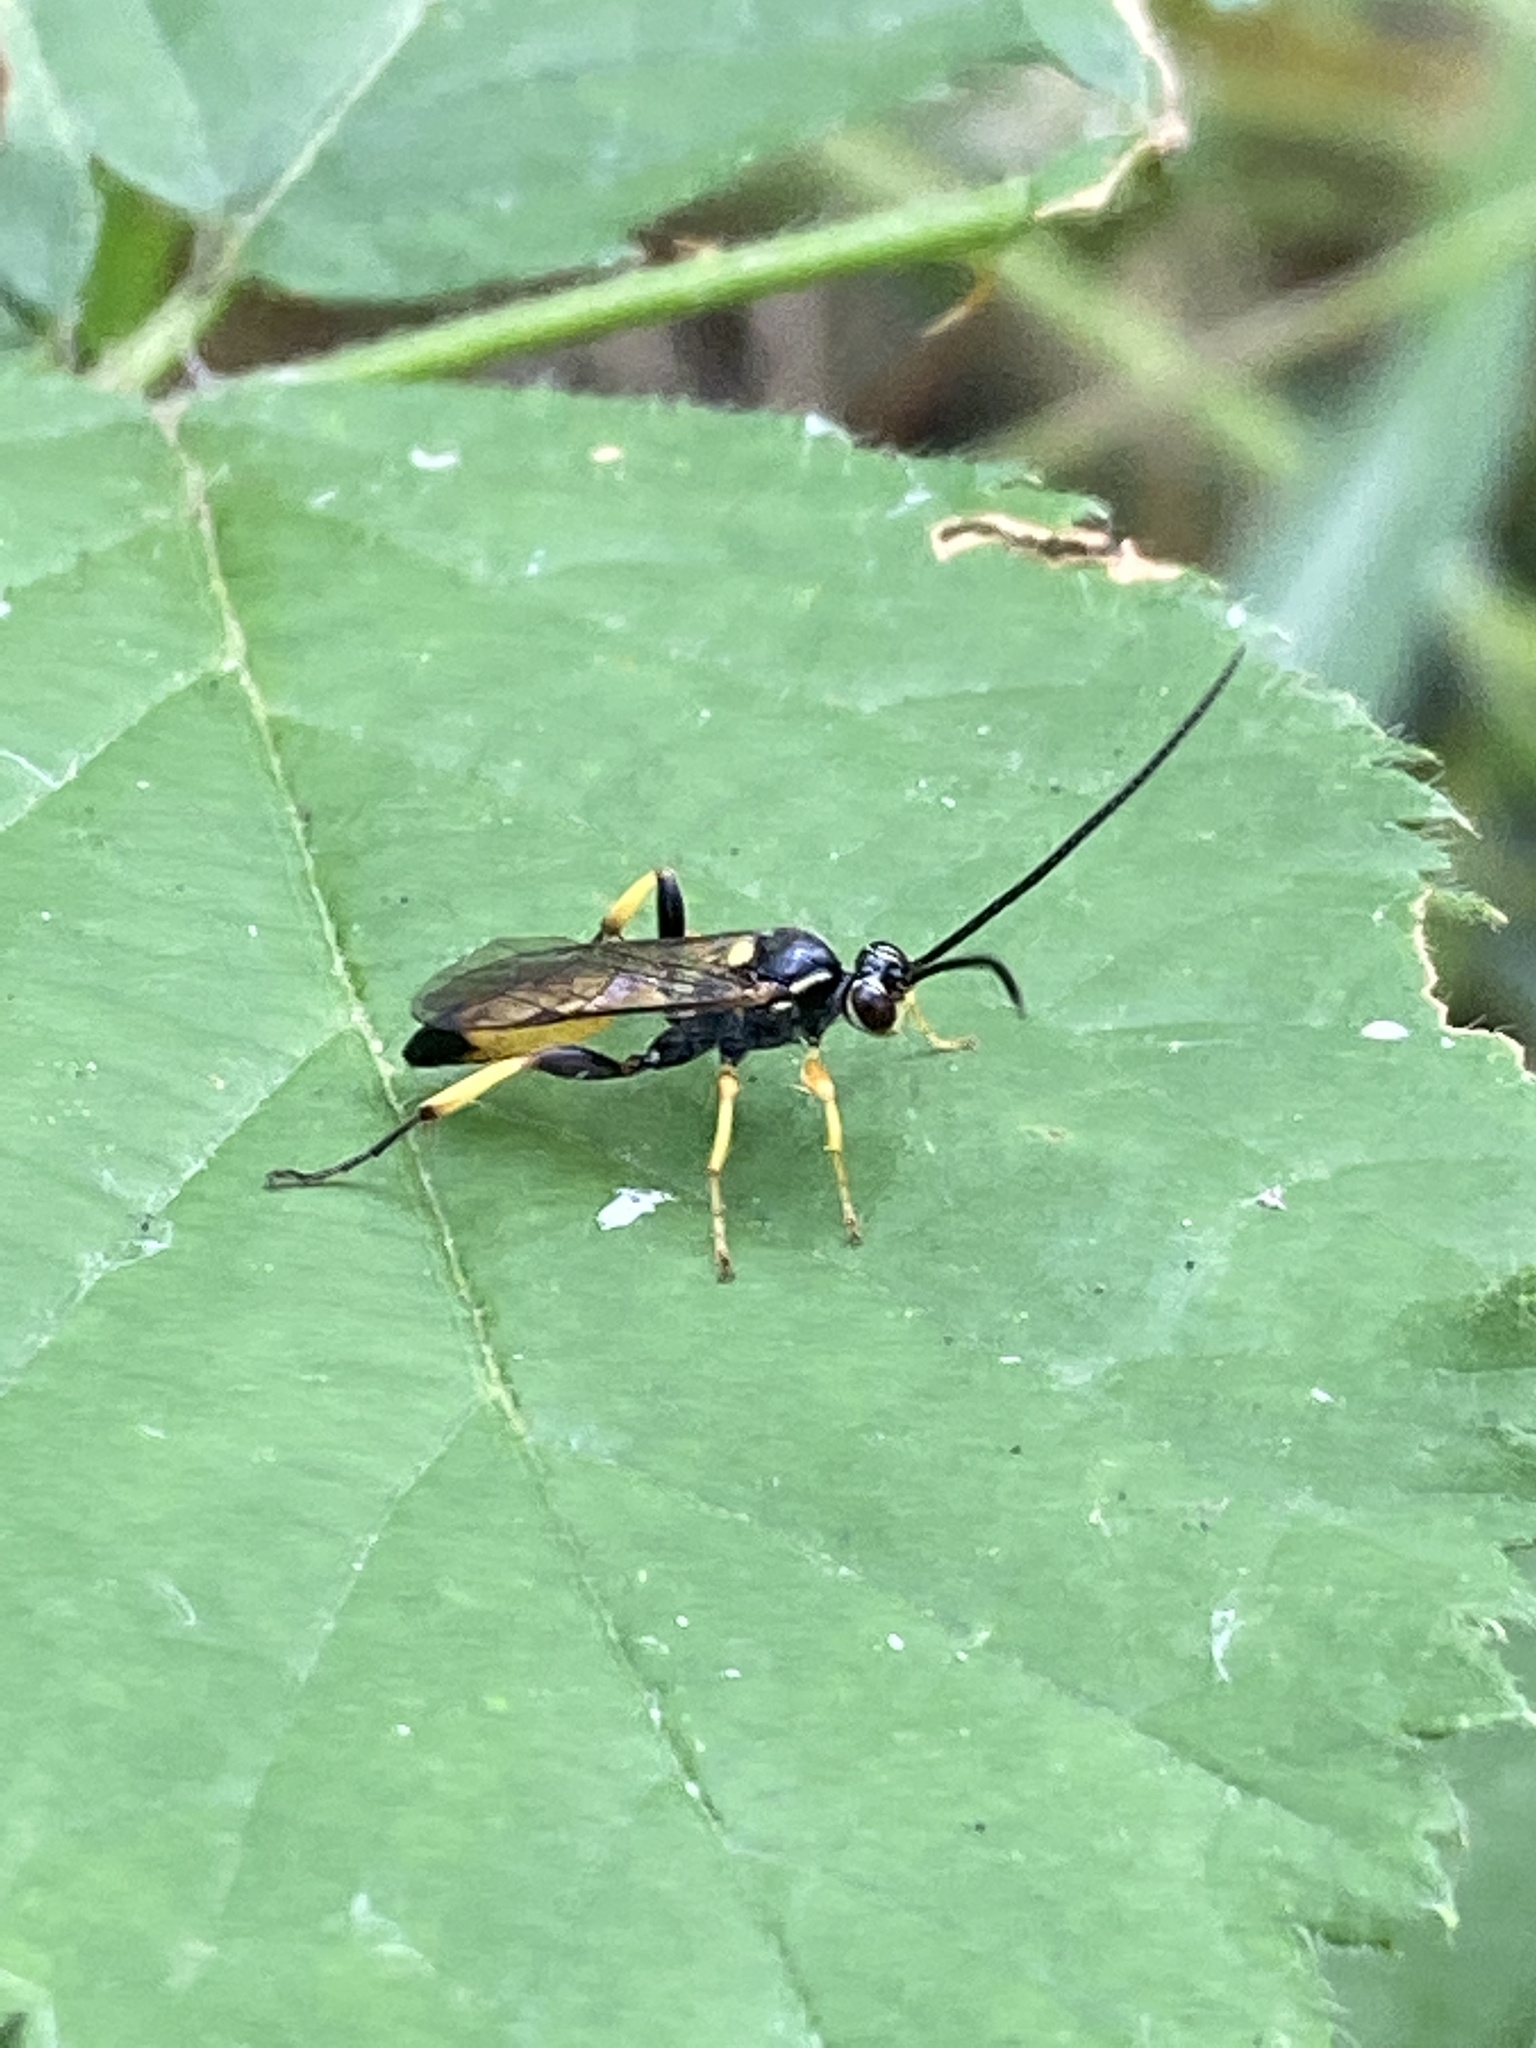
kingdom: Animalia
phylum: Arthropoda
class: Insecta
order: Hymenoptera
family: Ichneumonidae
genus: Cratichneumon
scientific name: Cratichneumon coruscator
